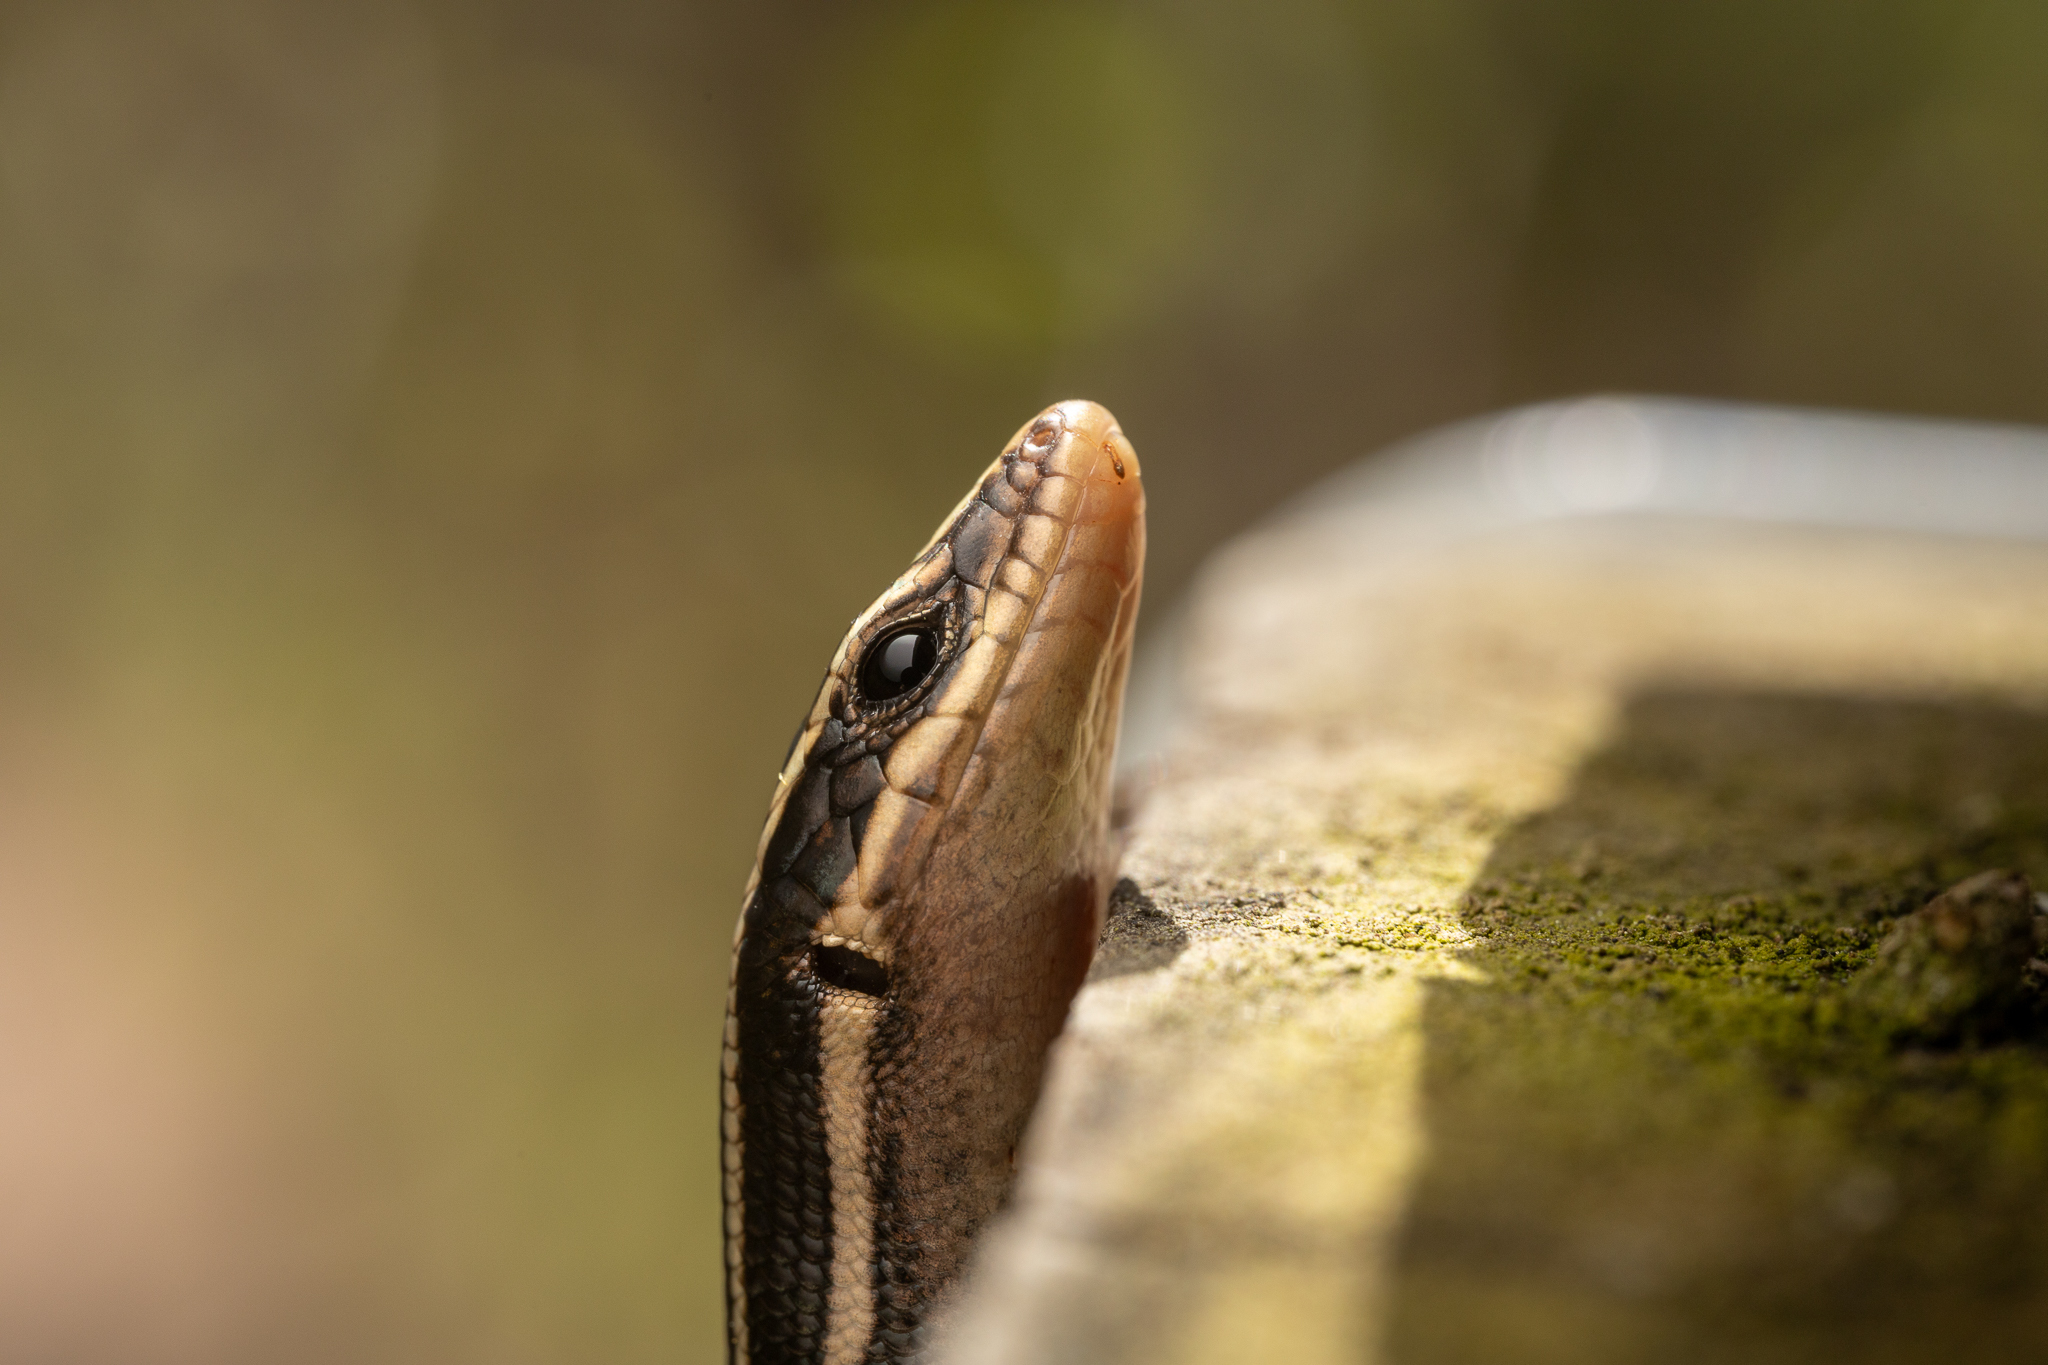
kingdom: Animalia
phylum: Chordata
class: Squamata
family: Scincidae
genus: Plestiodon
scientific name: Plestiodon fasciatus
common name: Five-lined skink
